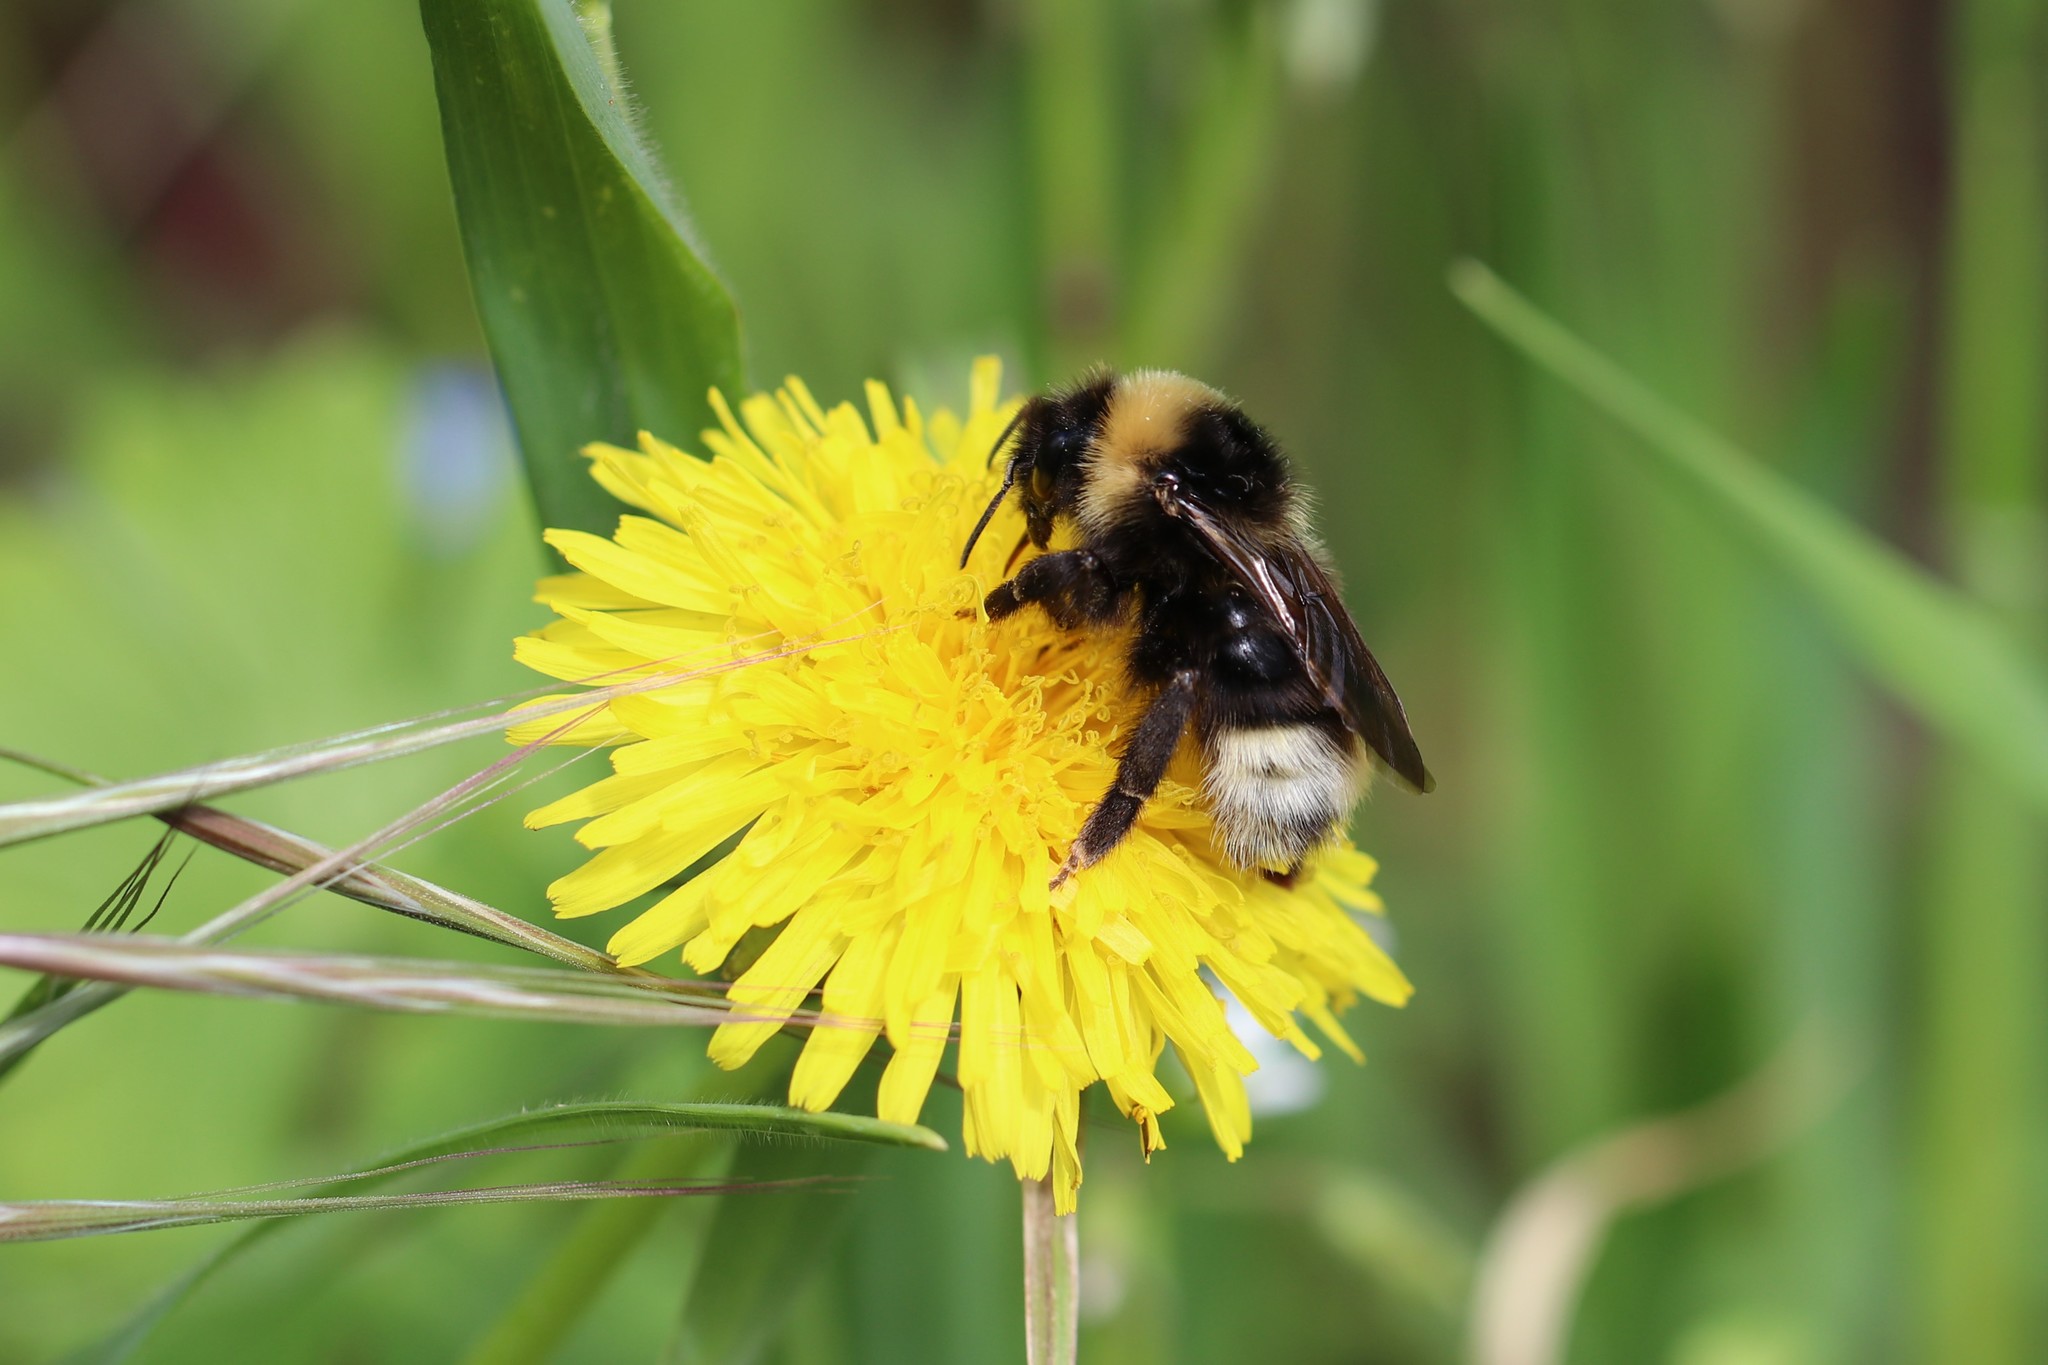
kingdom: Animalia
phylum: Arthropoda
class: Insecta
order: Hymenoptera
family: Apidae
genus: Bombus
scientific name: Bombus
